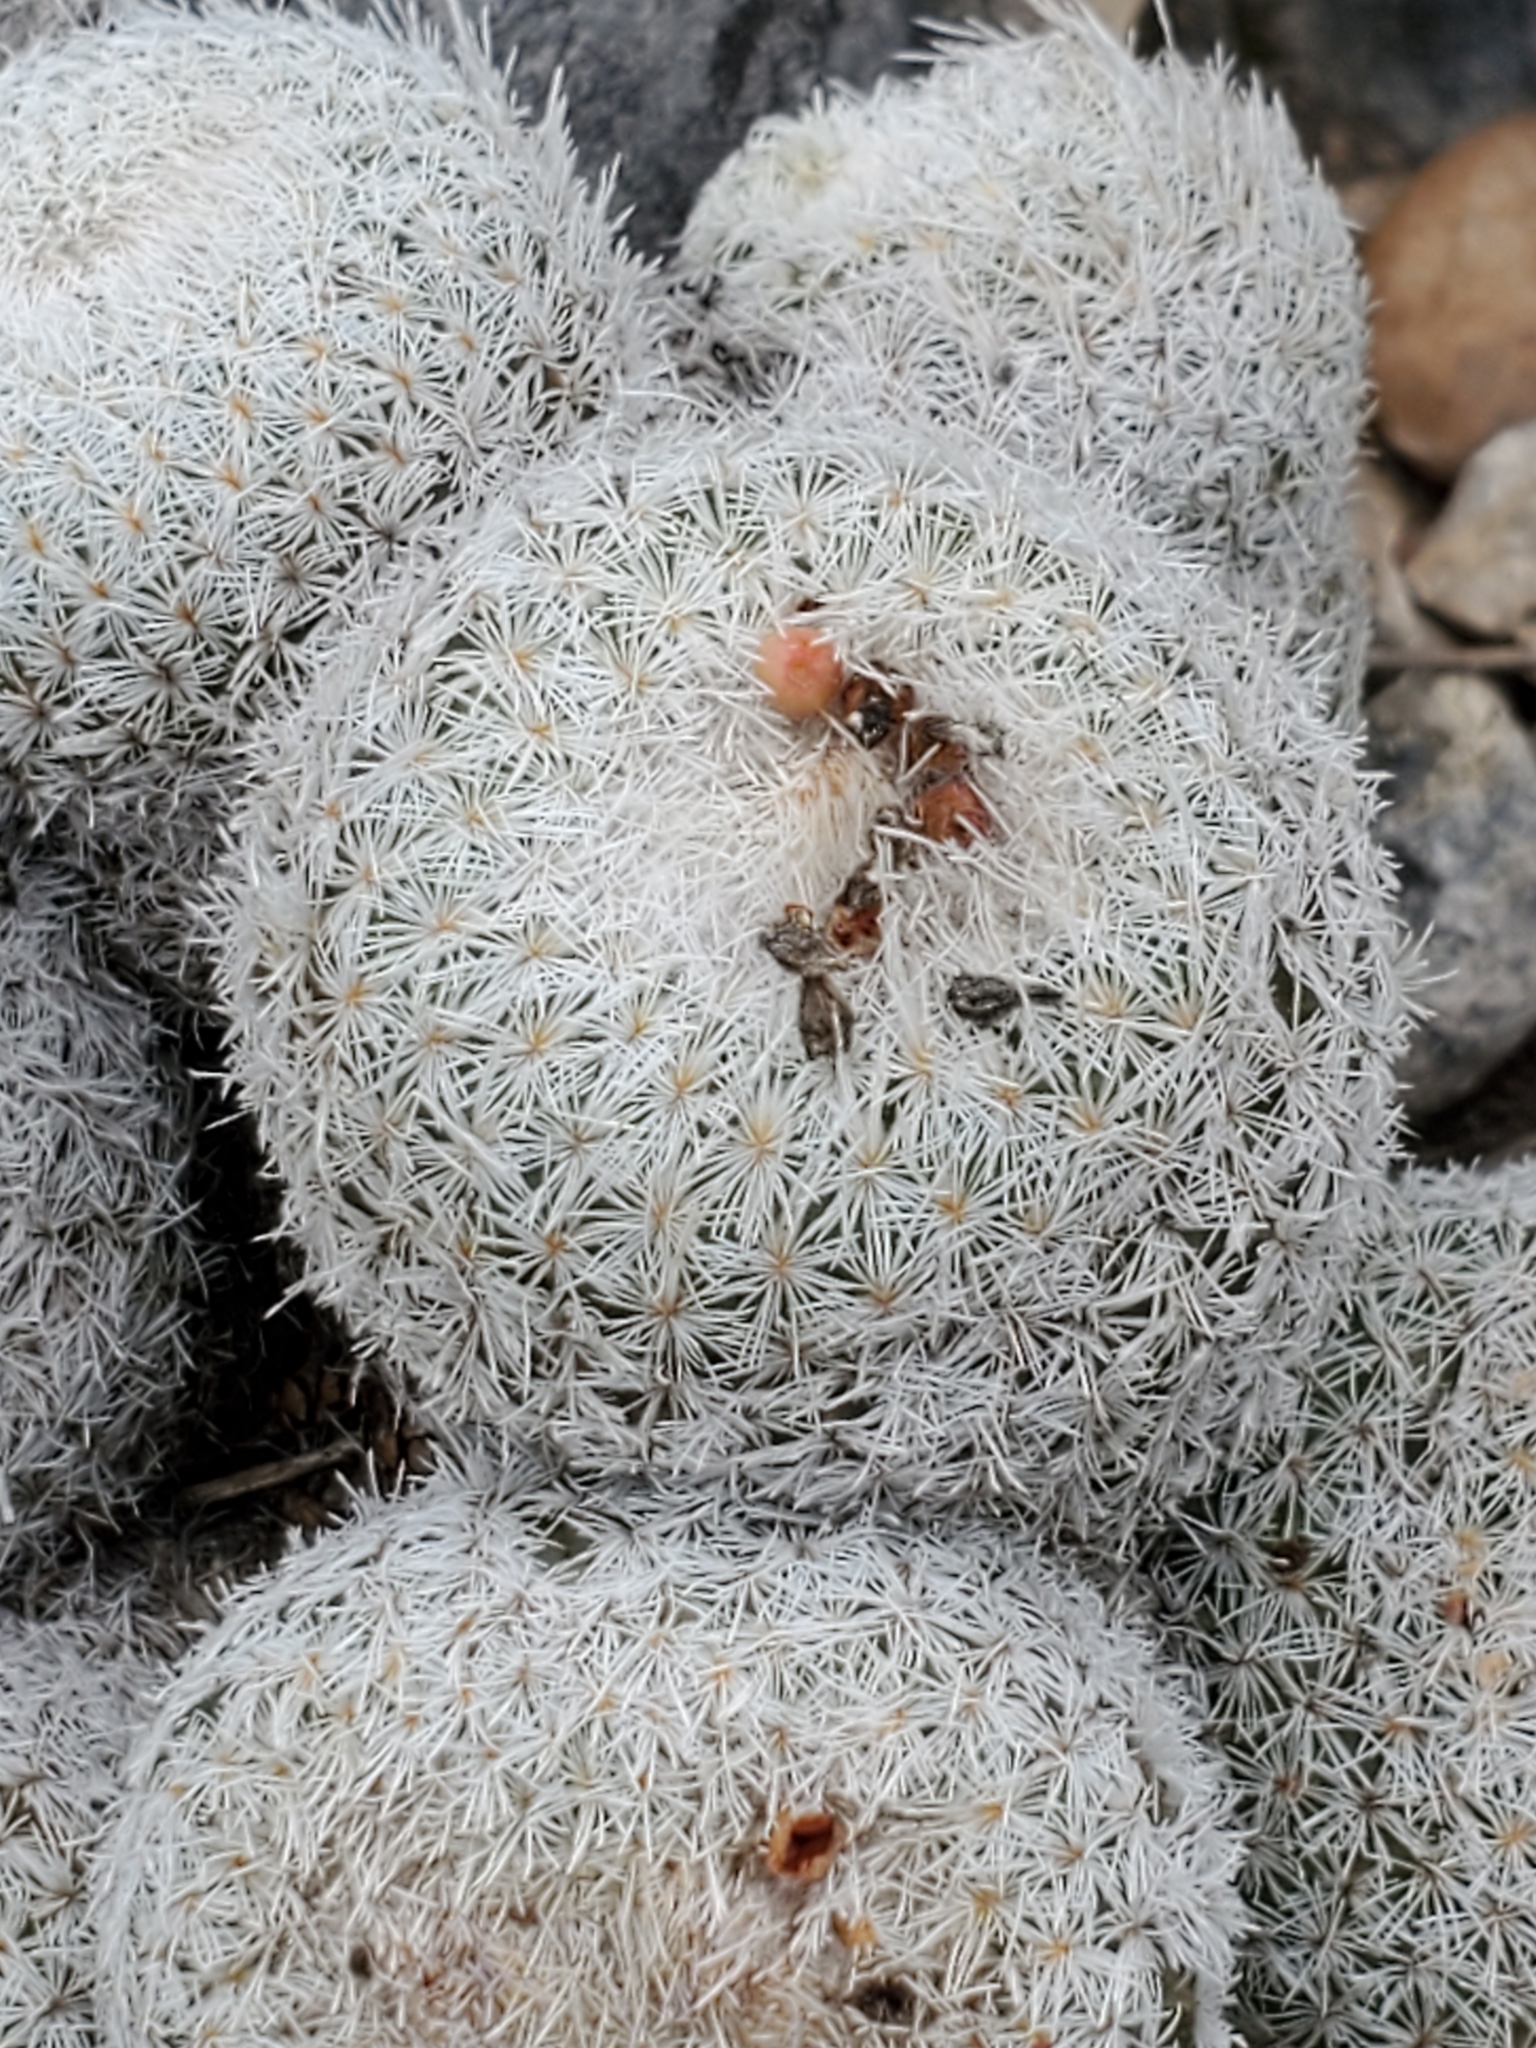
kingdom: Plantae
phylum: Tracheophyta
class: Magnoliopsida
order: Caryophyllales
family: Cactaceae
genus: Epithelantha
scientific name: Epithelantha micromeris
